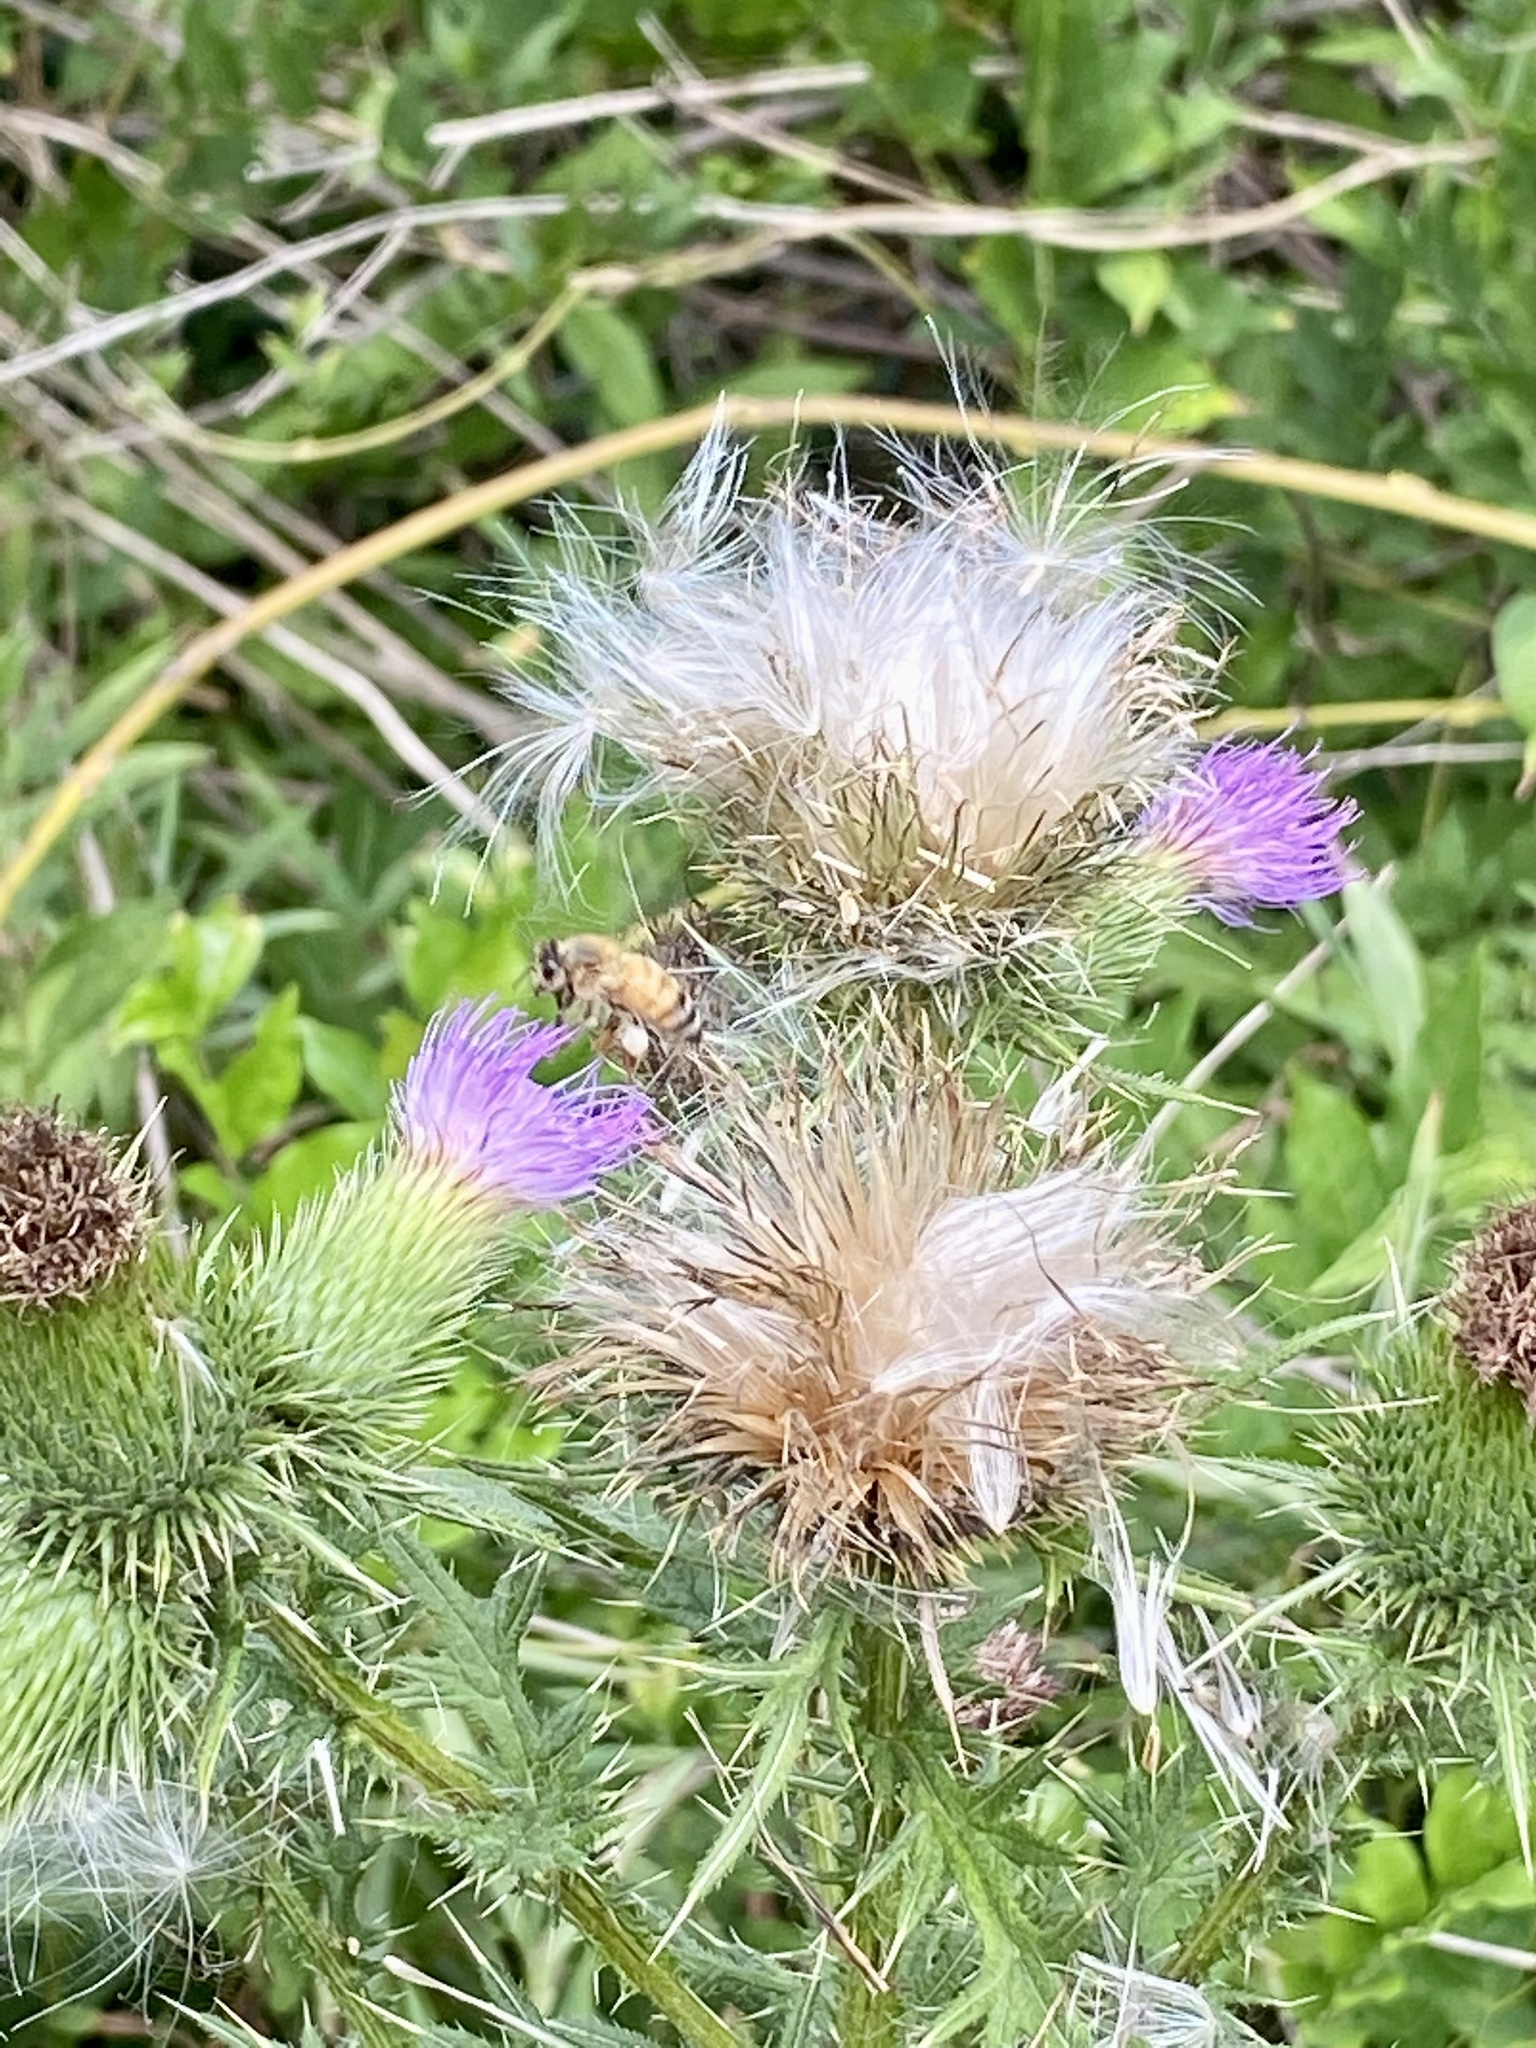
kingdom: Plantae
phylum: Tracheophyta
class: Magnoliopsida
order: Asterales
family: Asteraceae
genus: Cirsium
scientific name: Cirsium vulgare
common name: Bull thistle
